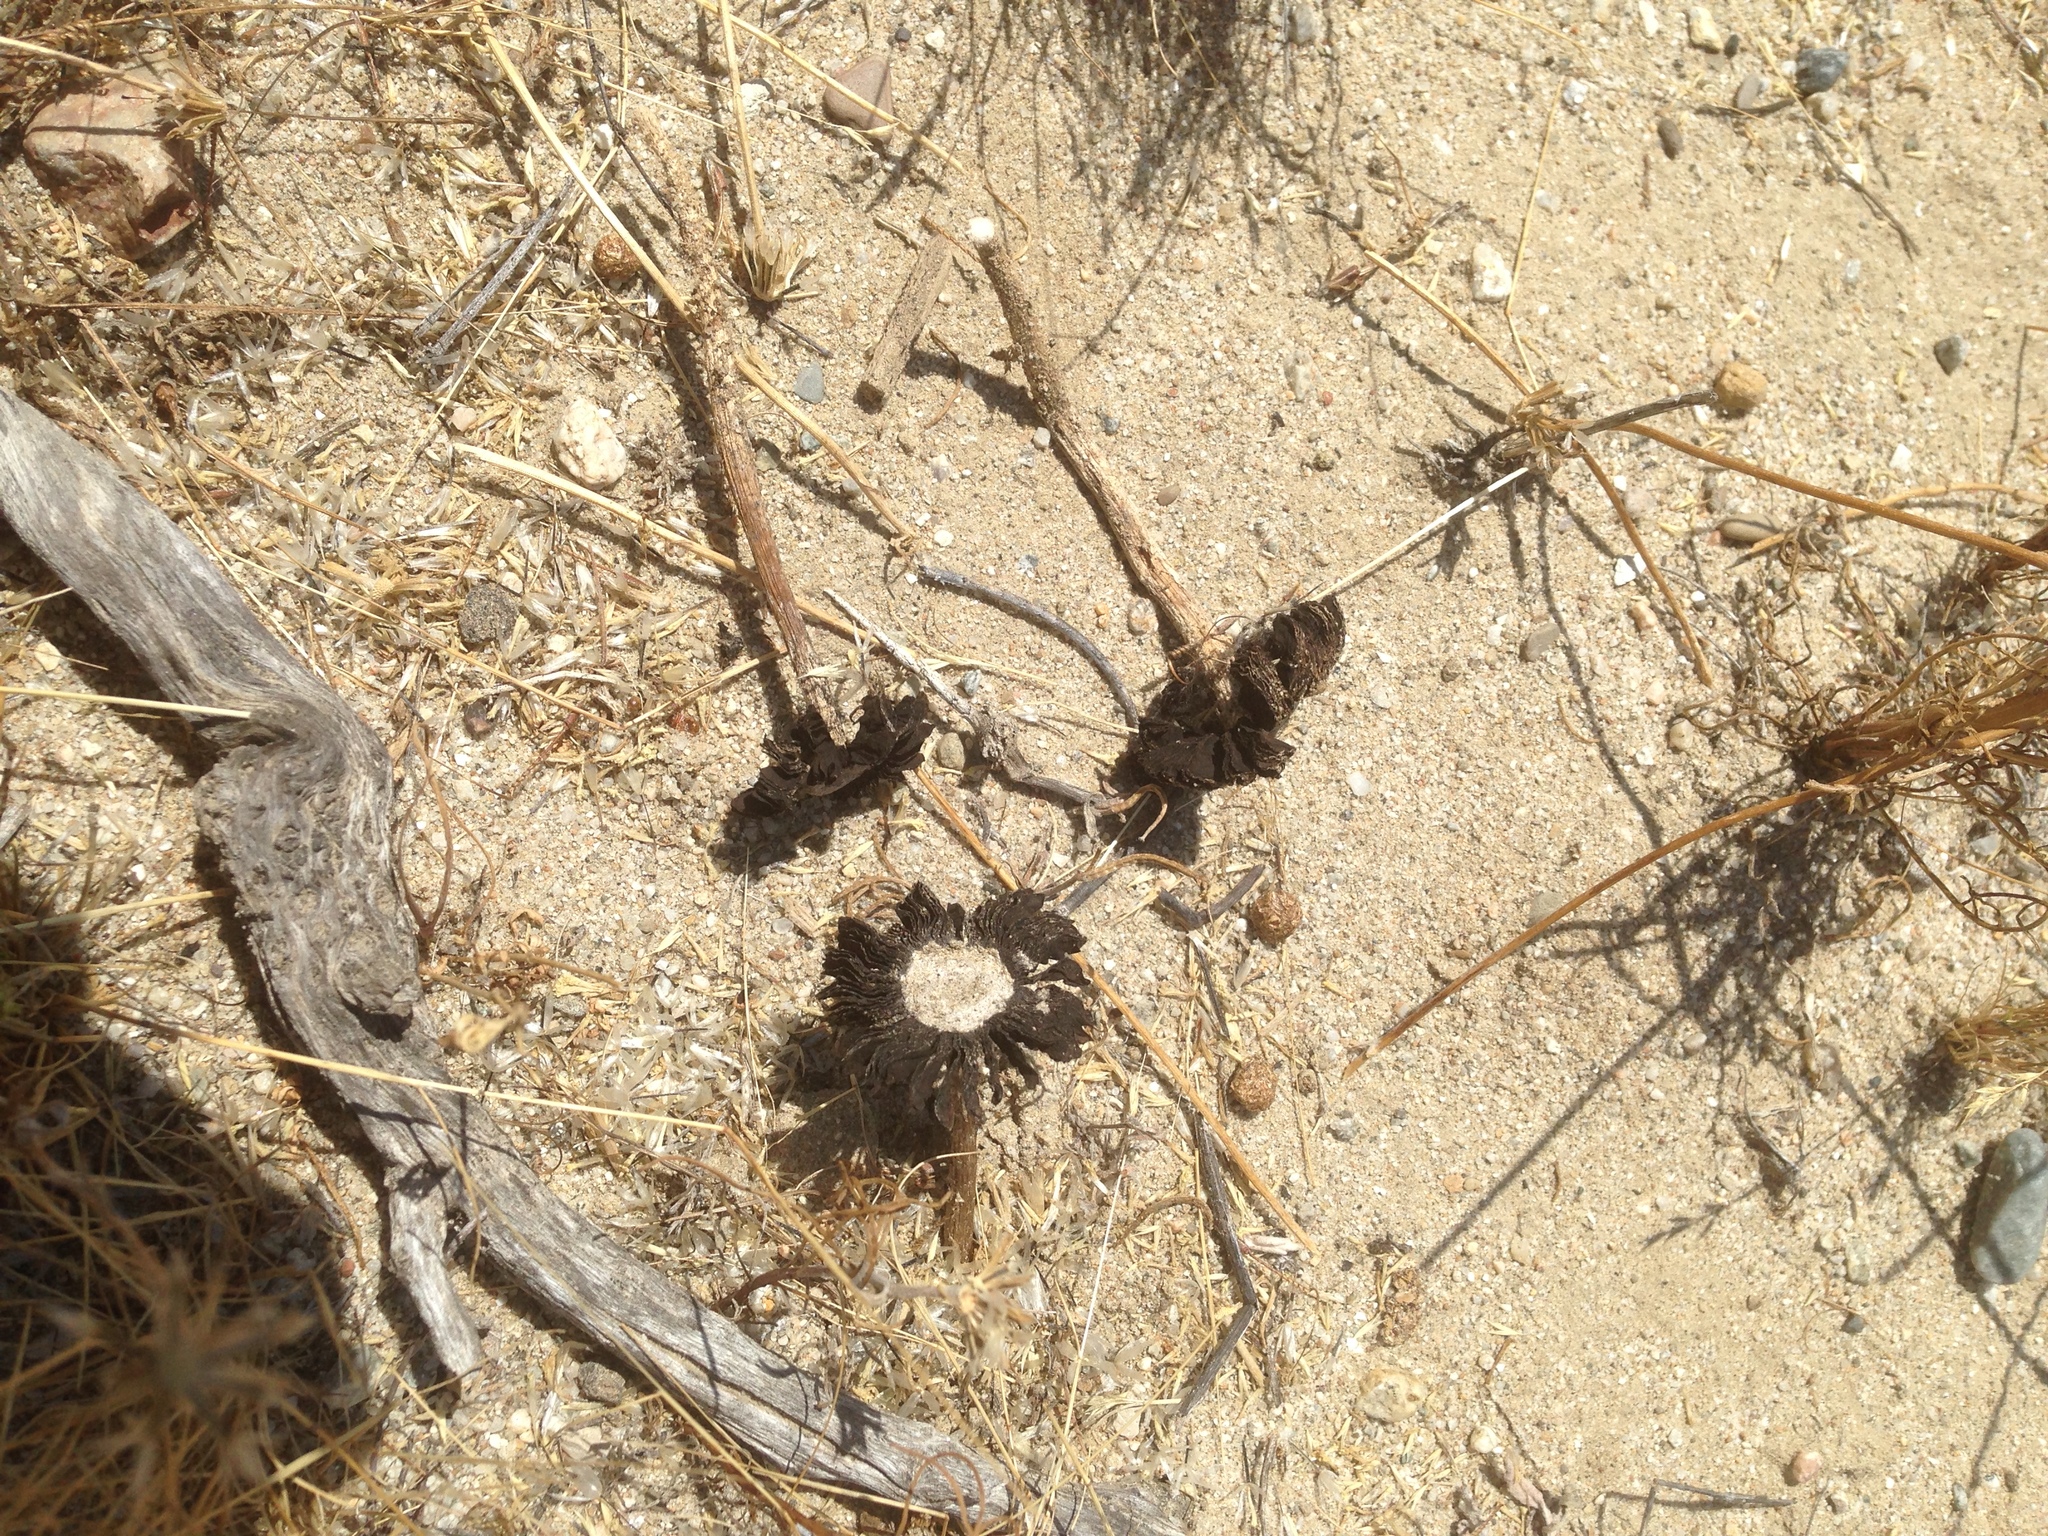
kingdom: Fungi
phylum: Basidiomycota
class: Agaricomycetes
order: Agaricales
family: Agaricaceae
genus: Montagnea
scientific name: Montagnea arenaria
